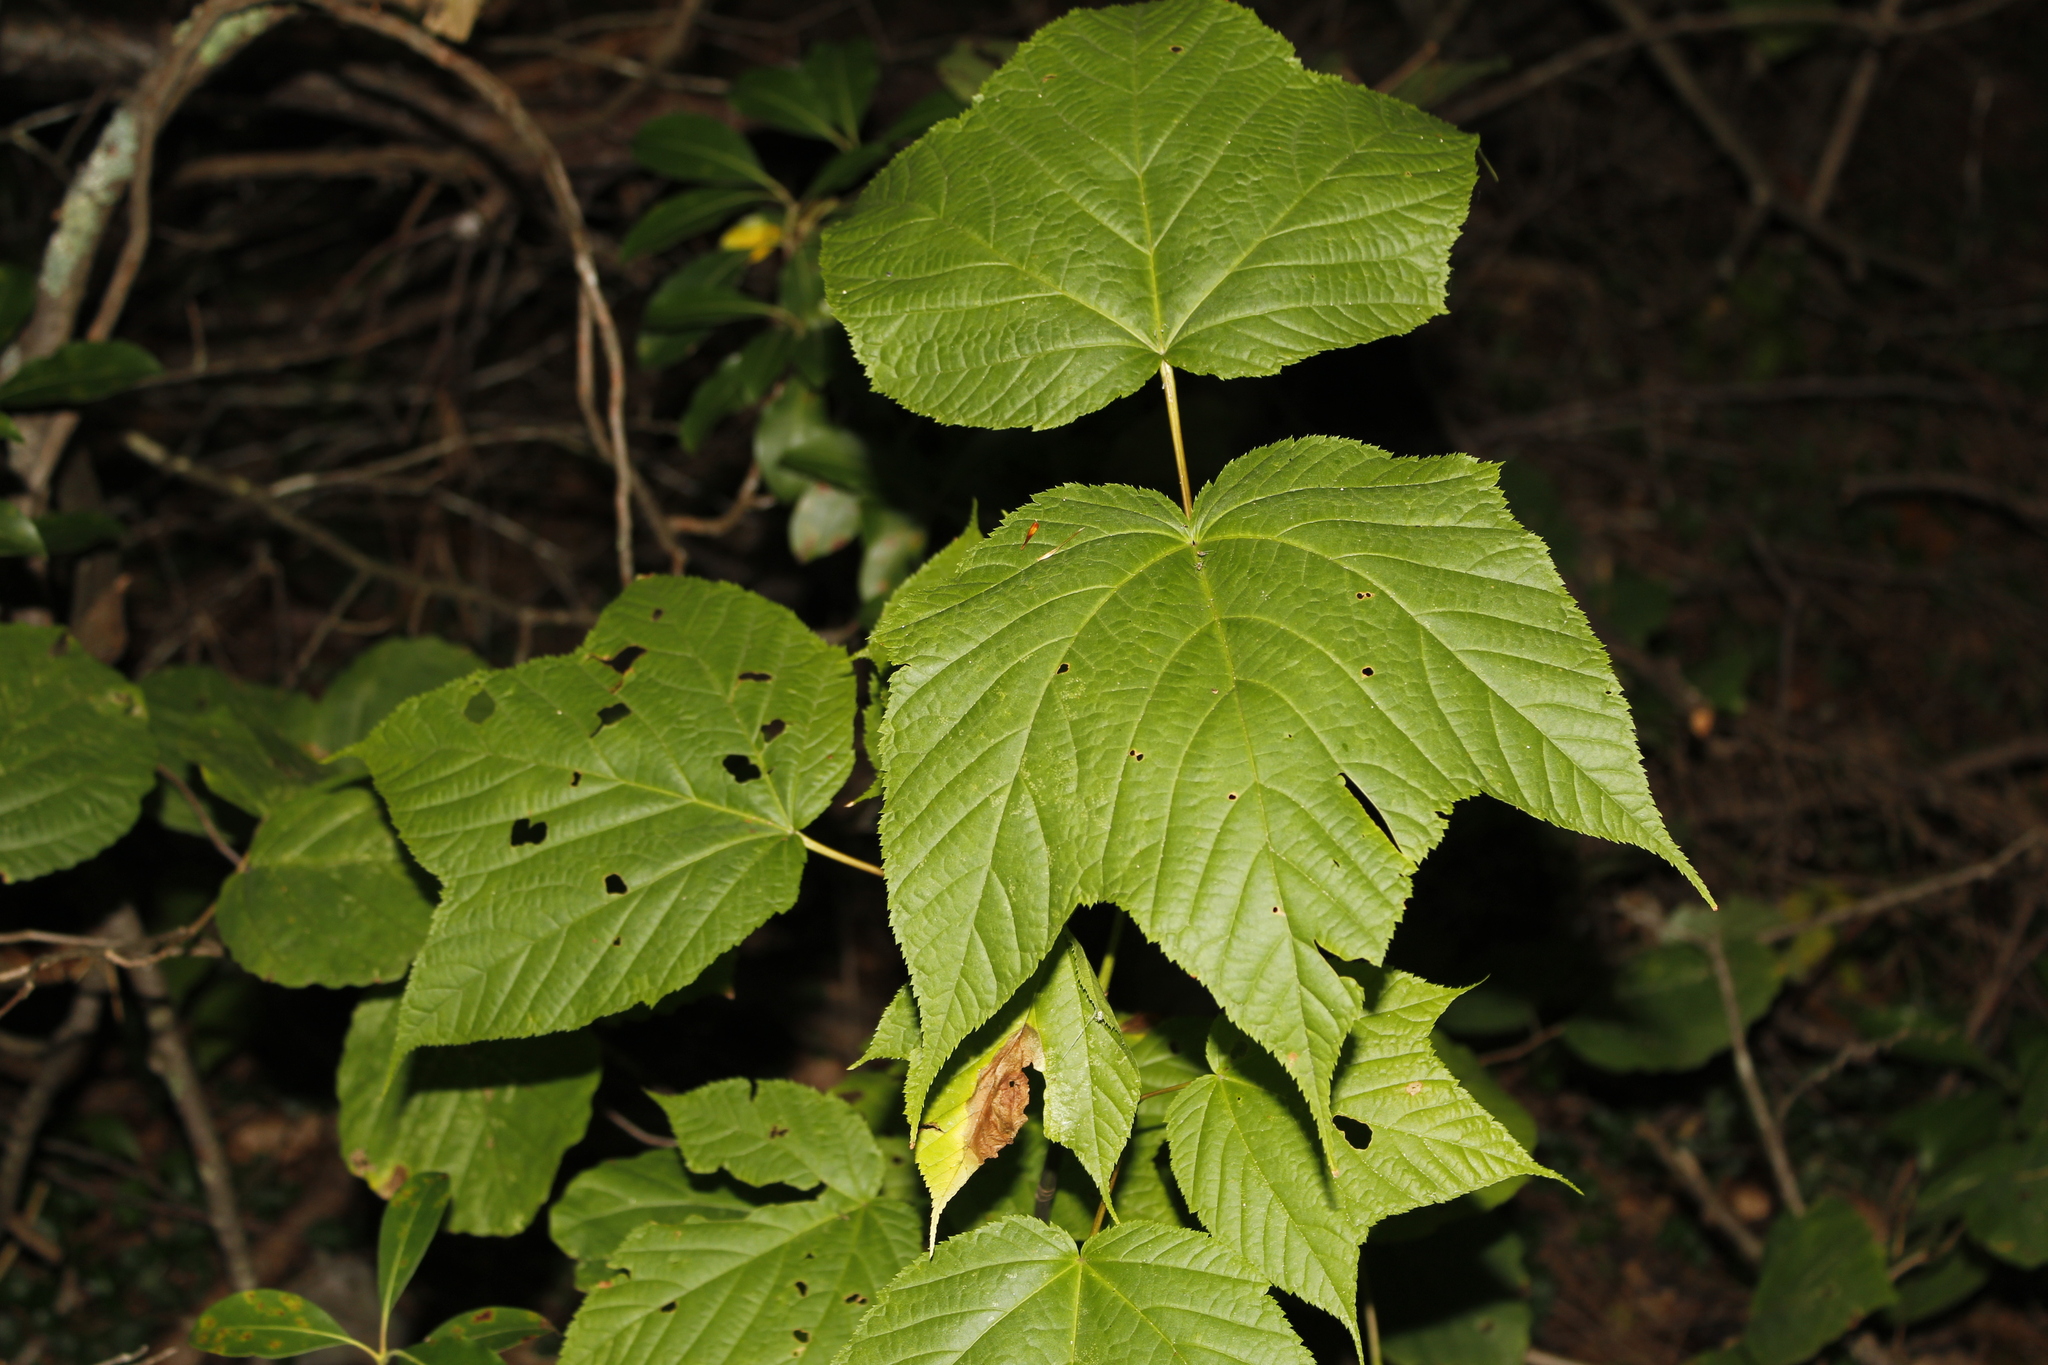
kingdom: Plantae
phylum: Tracheophyta
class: Magnoliopsida
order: Sapindales
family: Sapindaceae
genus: Acer
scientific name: Acer pensylvanicum
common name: Moosewood
